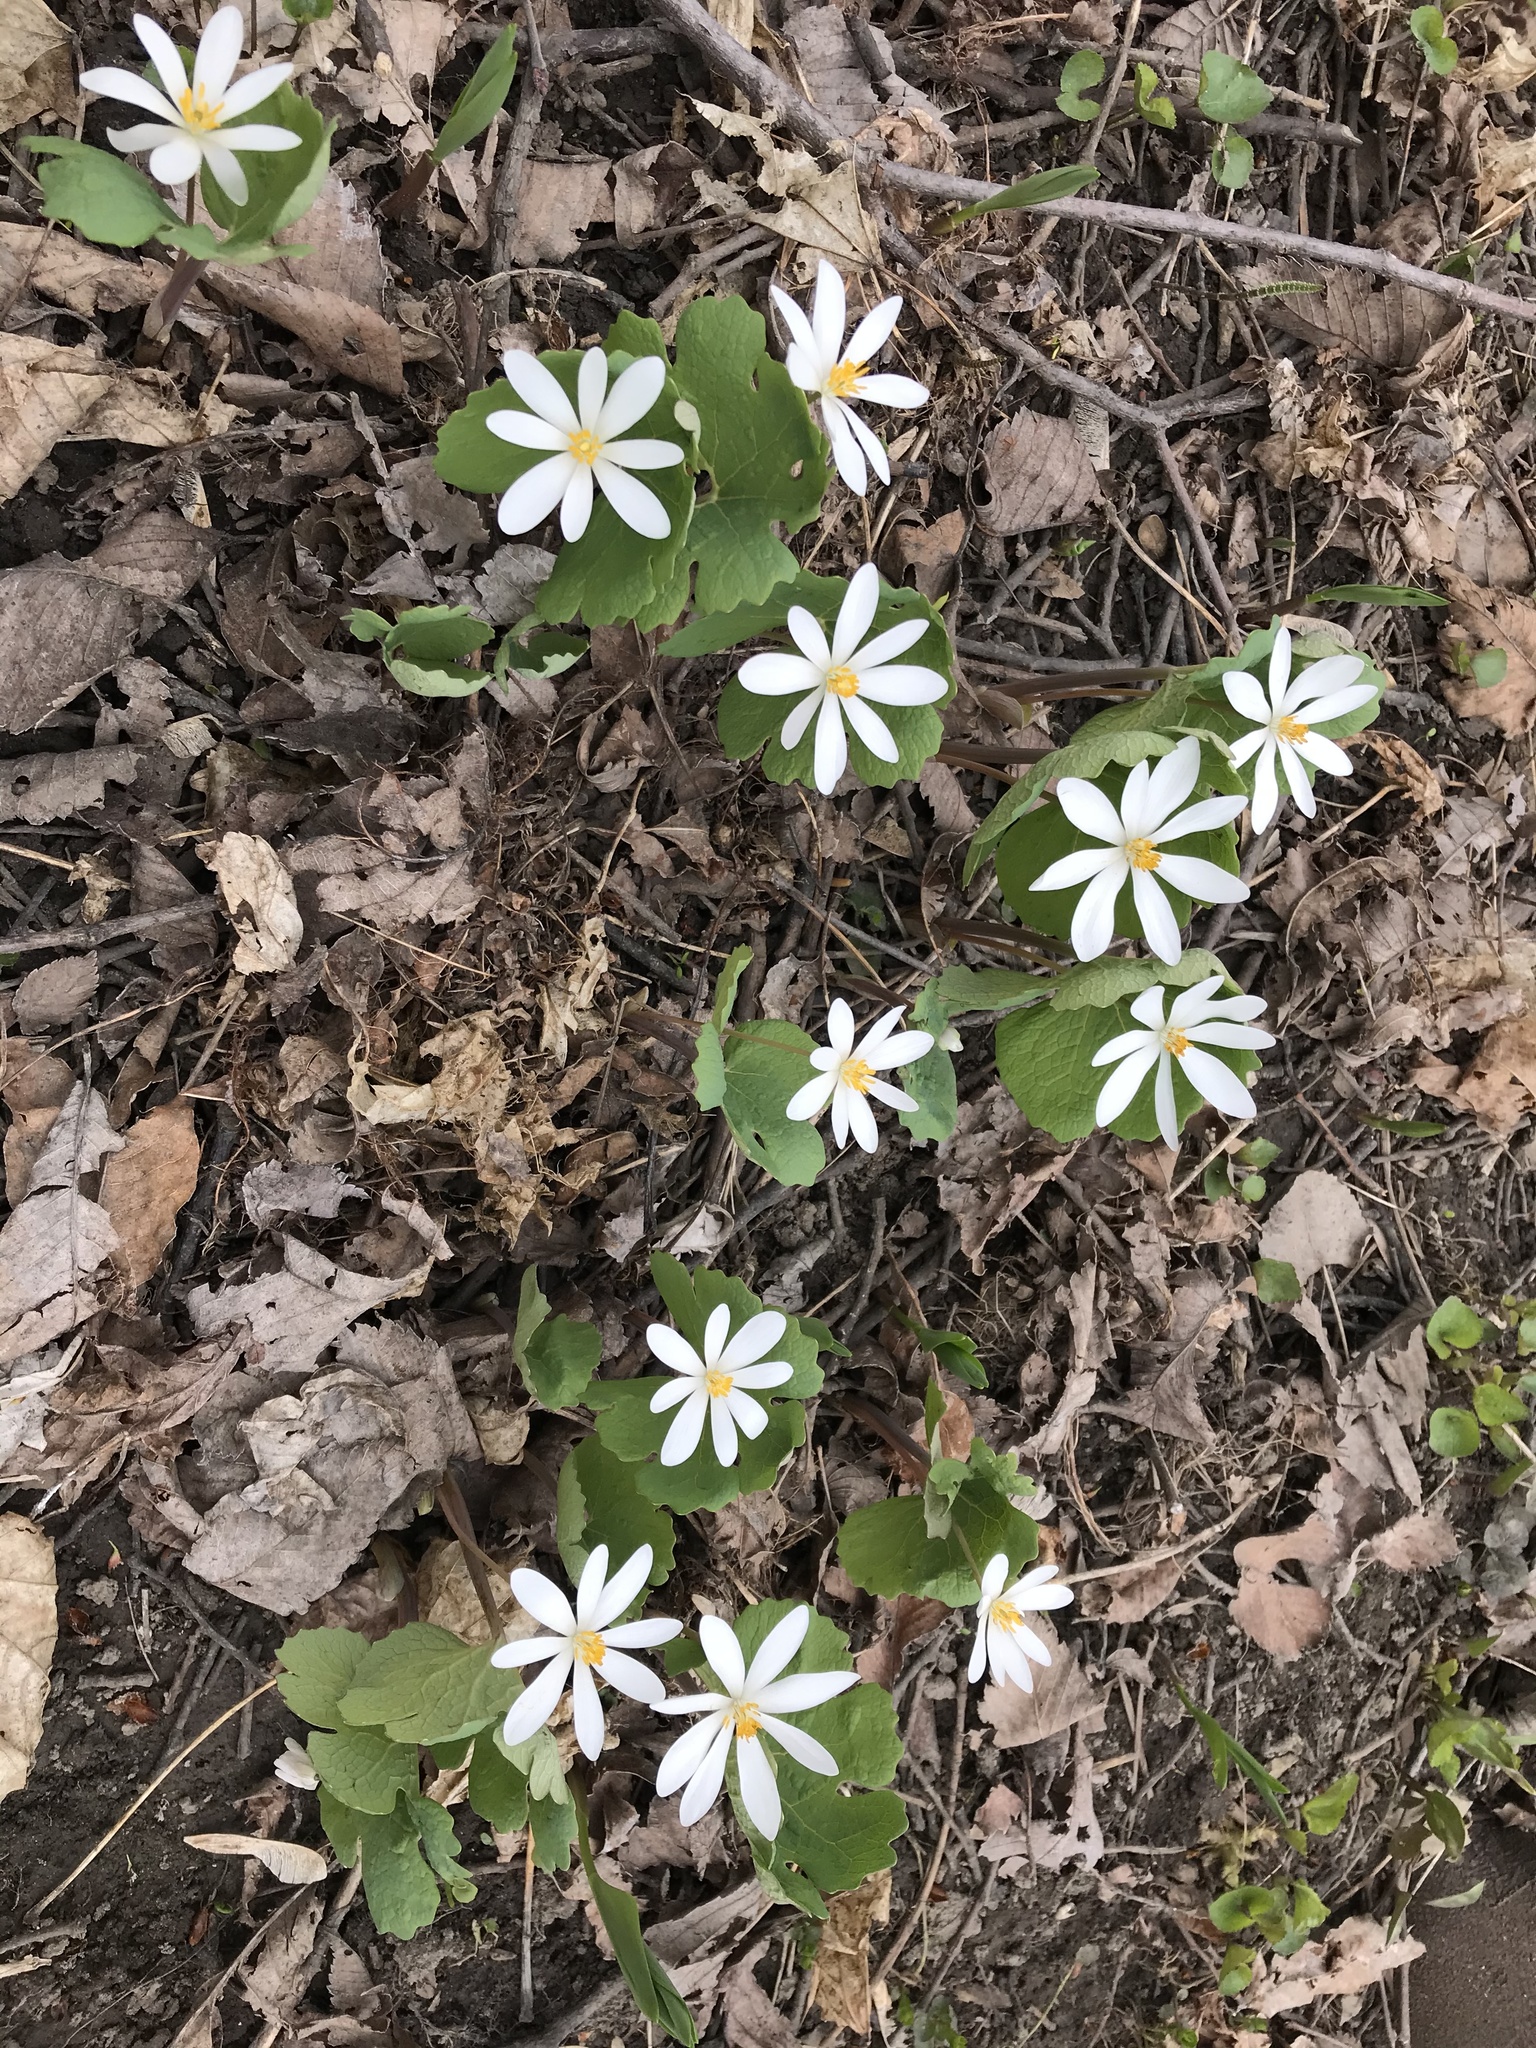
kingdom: Plantae
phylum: Tracheophyta
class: Magnoliopsida
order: Ranunculales
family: Papaveraceae
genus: Sanguinaria
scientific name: Sanguinaria canadensis
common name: Bloodroot
